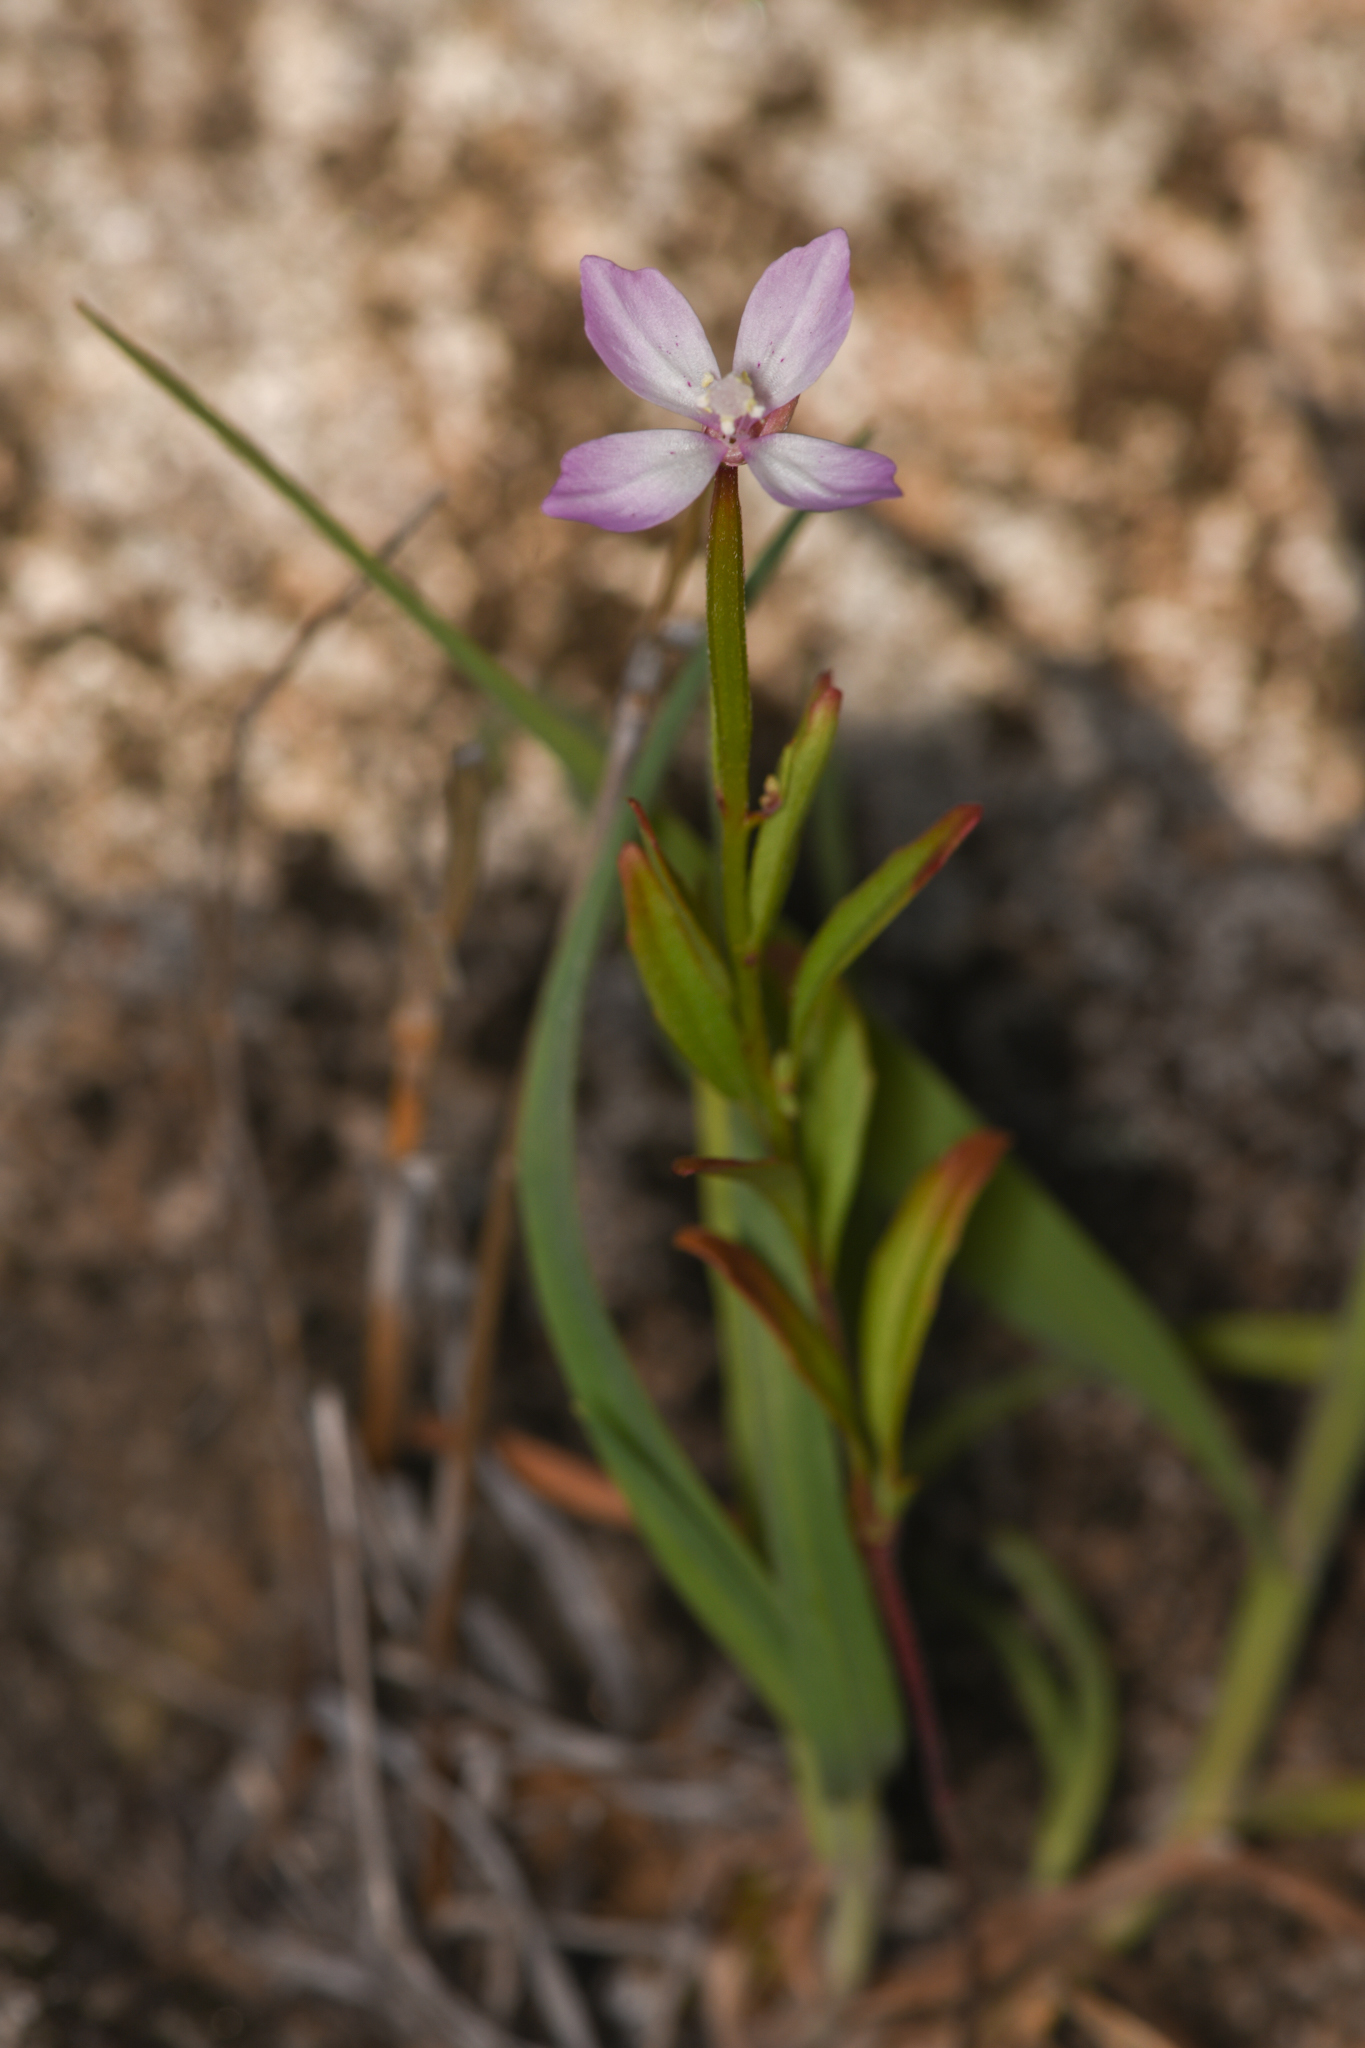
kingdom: Plantae
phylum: Tracheophyta
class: Magnoliopsida
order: Myrtales
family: Onagraceae
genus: Clarkia
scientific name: Clarkia similis
